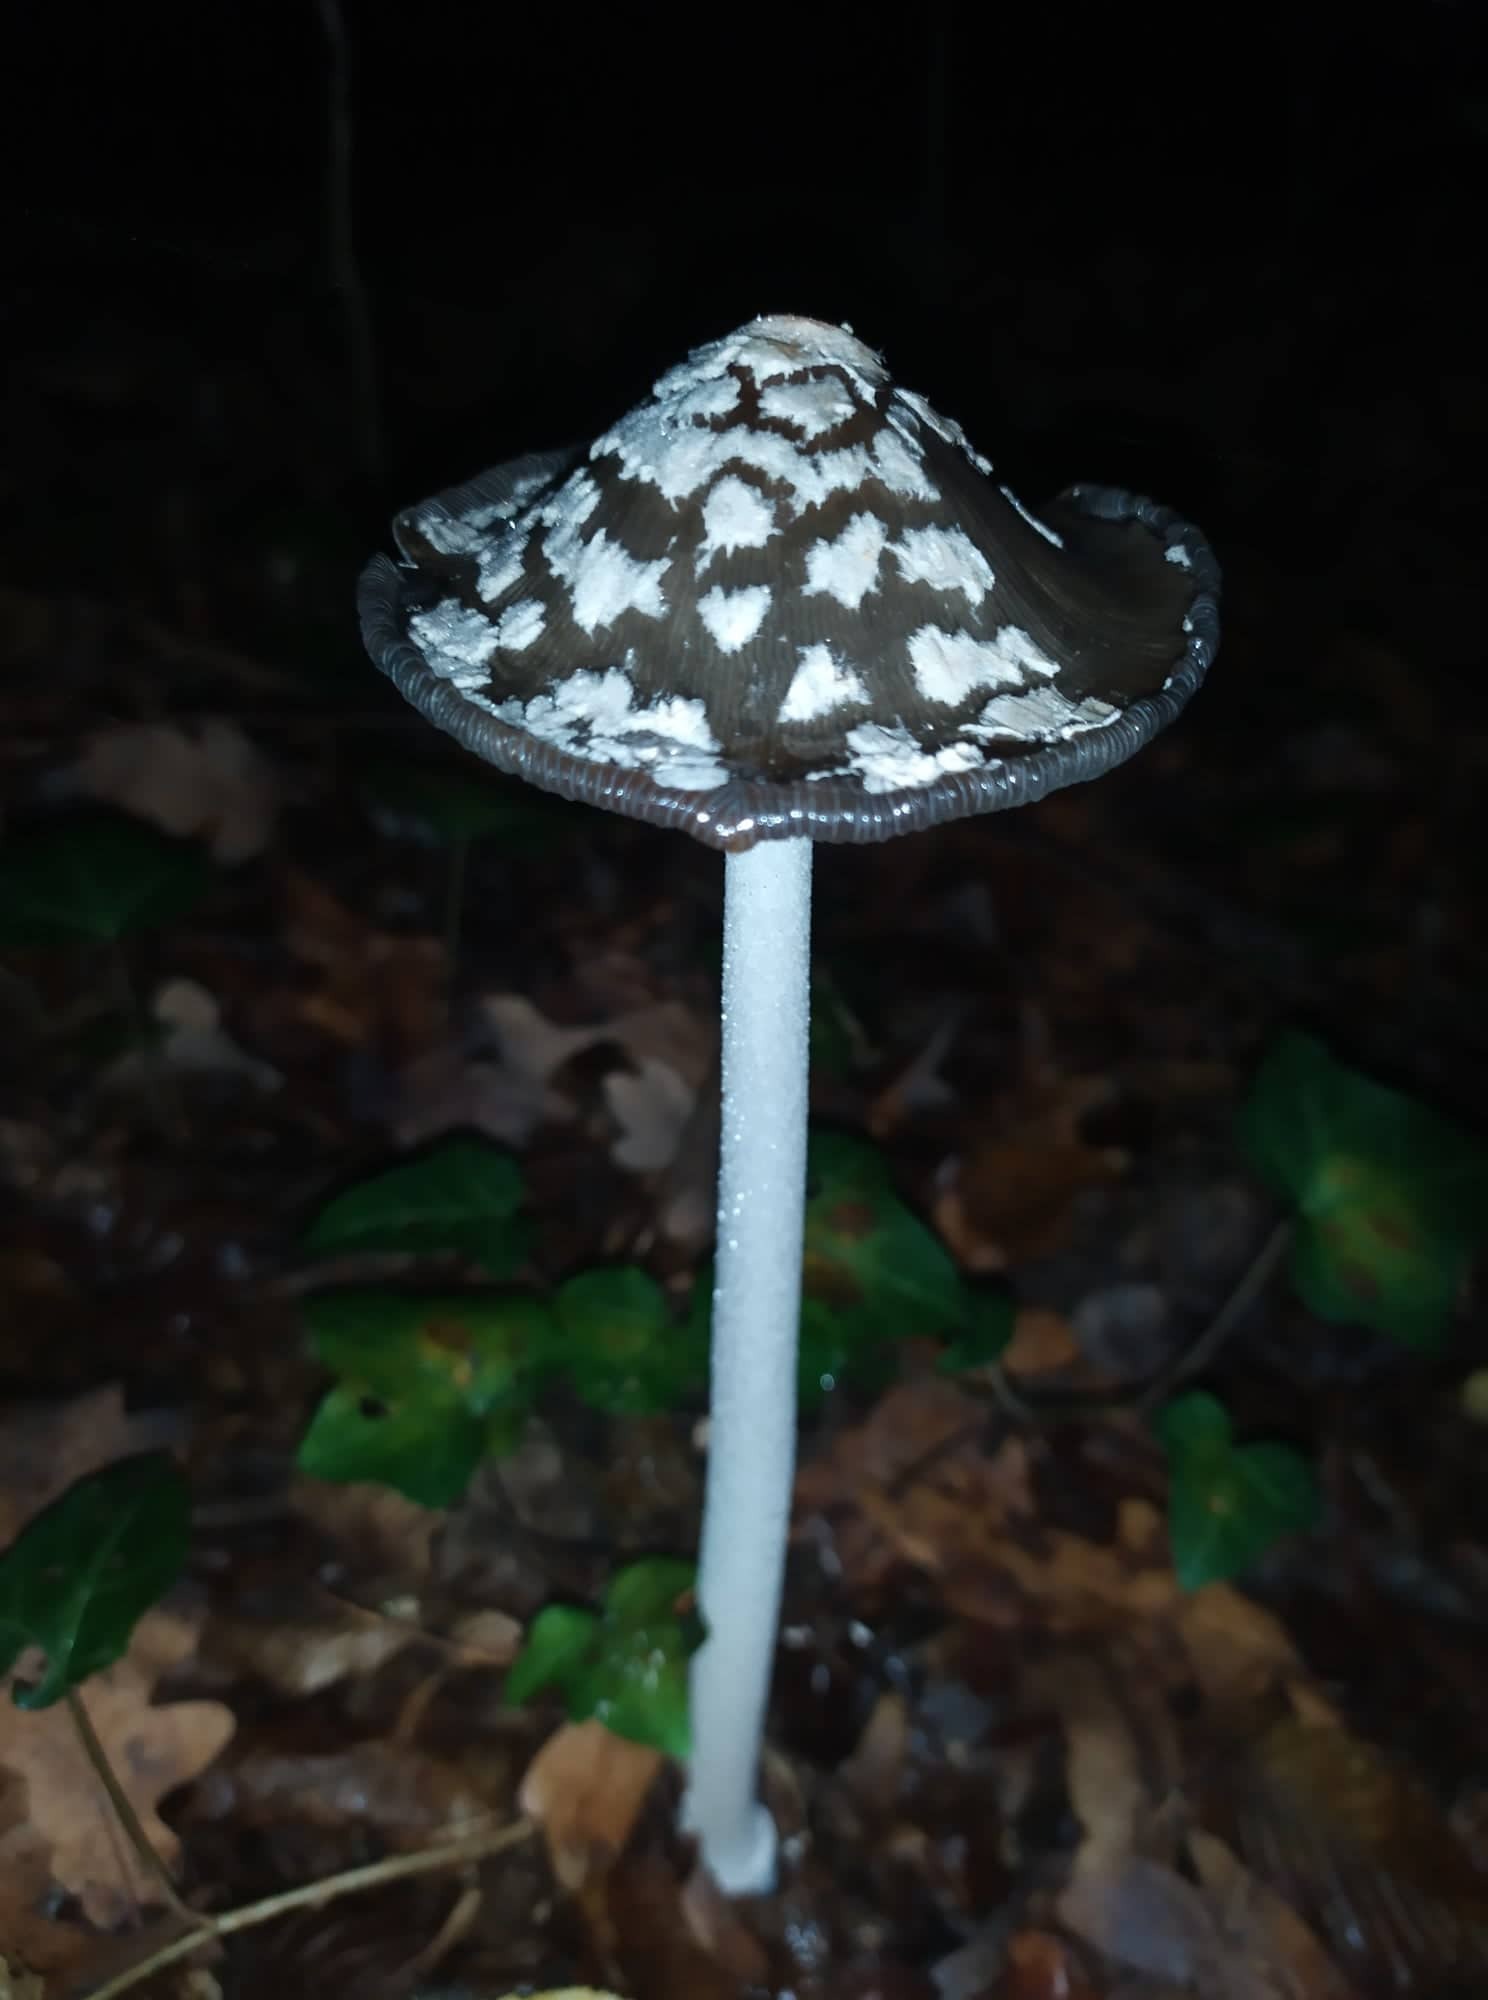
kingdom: Fungi
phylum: Basidiomycota
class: Agaricomycetes
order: Agaricales
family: Psathyrellaceae
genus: Coprinopsis
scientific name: Coprinopsis picacea
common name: Magpie inkcap
